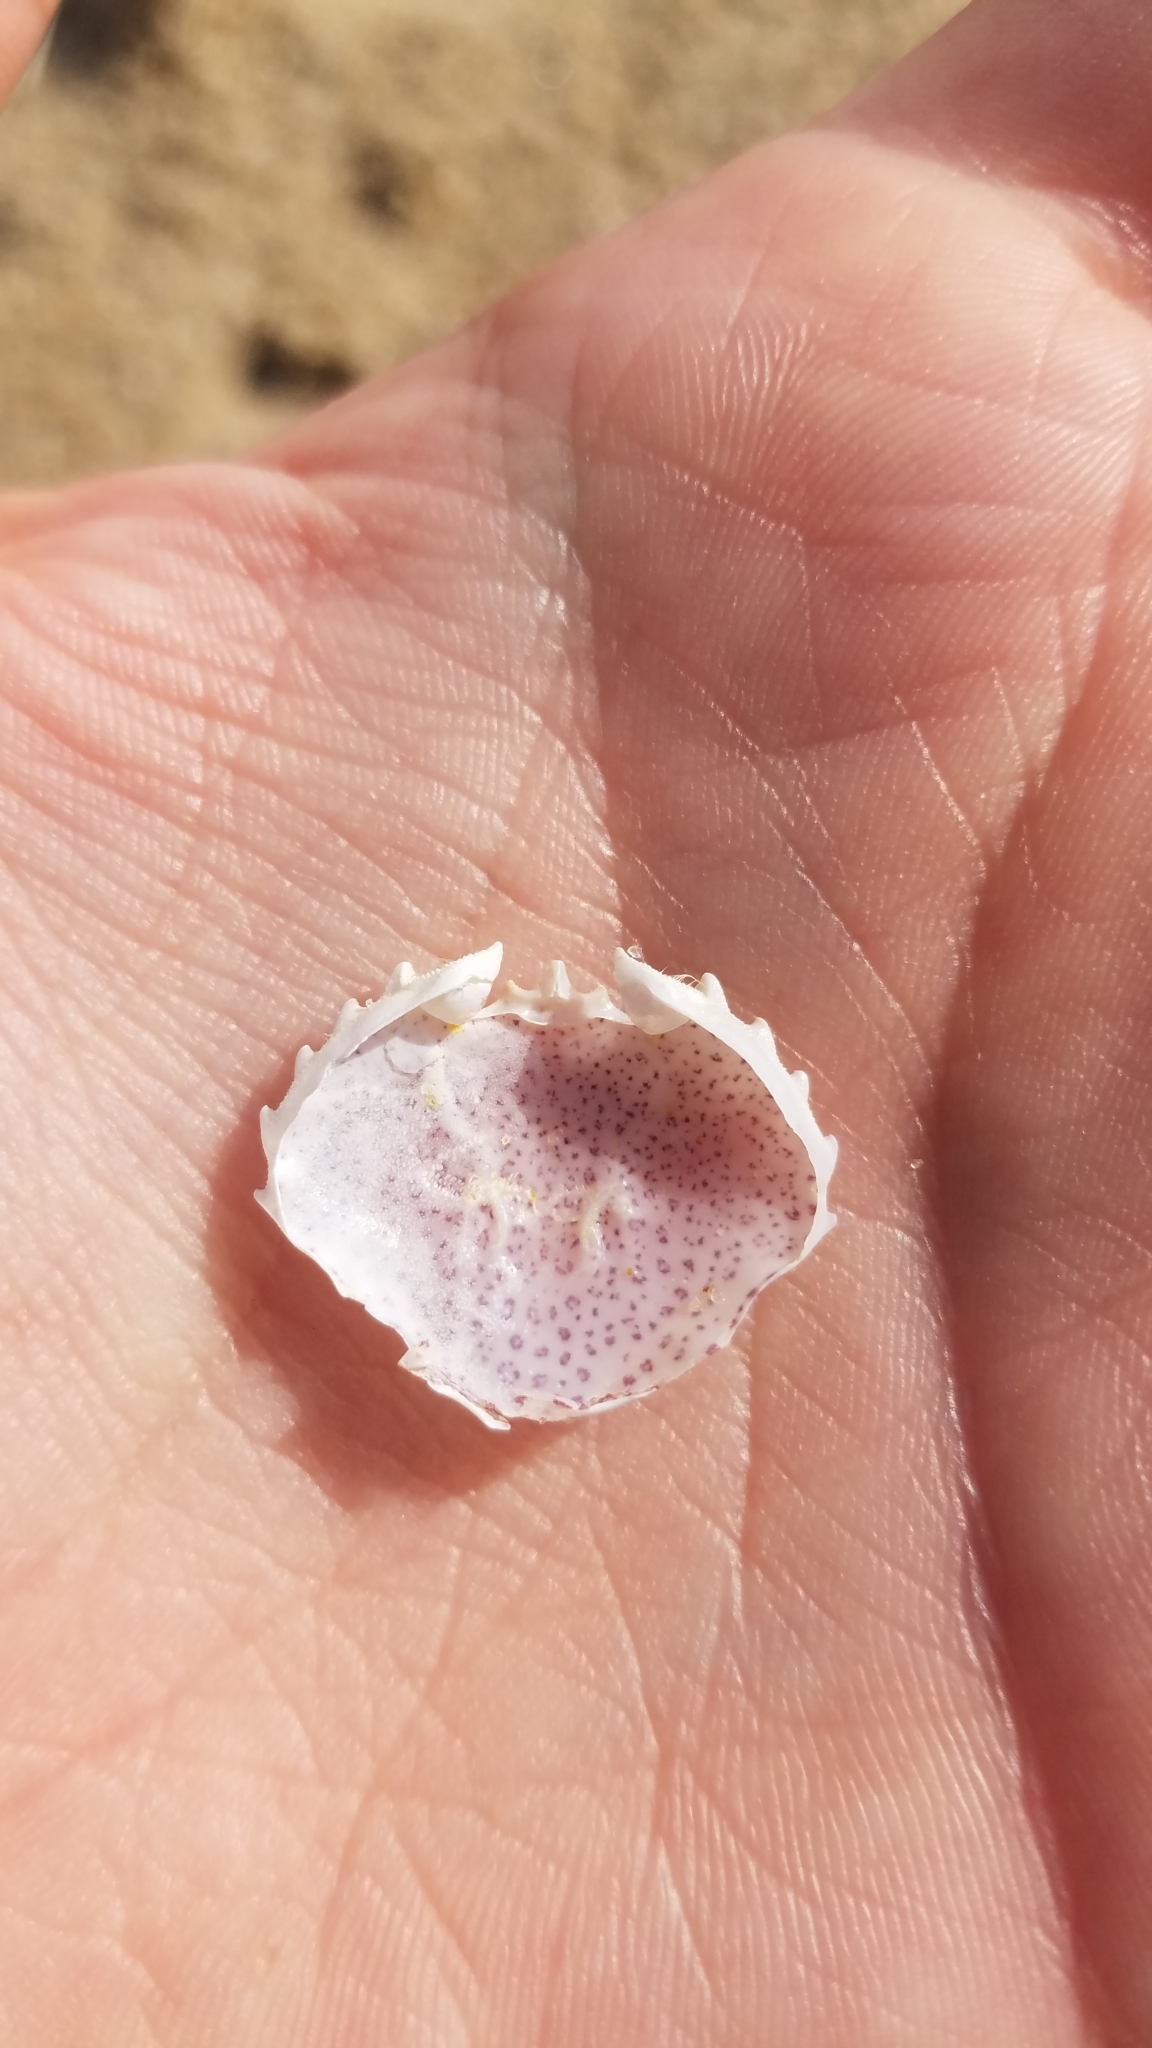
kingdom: Animalia
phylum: Arthropoda
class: Malacostraca
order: Decapoda
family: Ovalipidae
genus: Ovalipes
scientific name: Ovalipes ocellatus
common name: Lady crab
